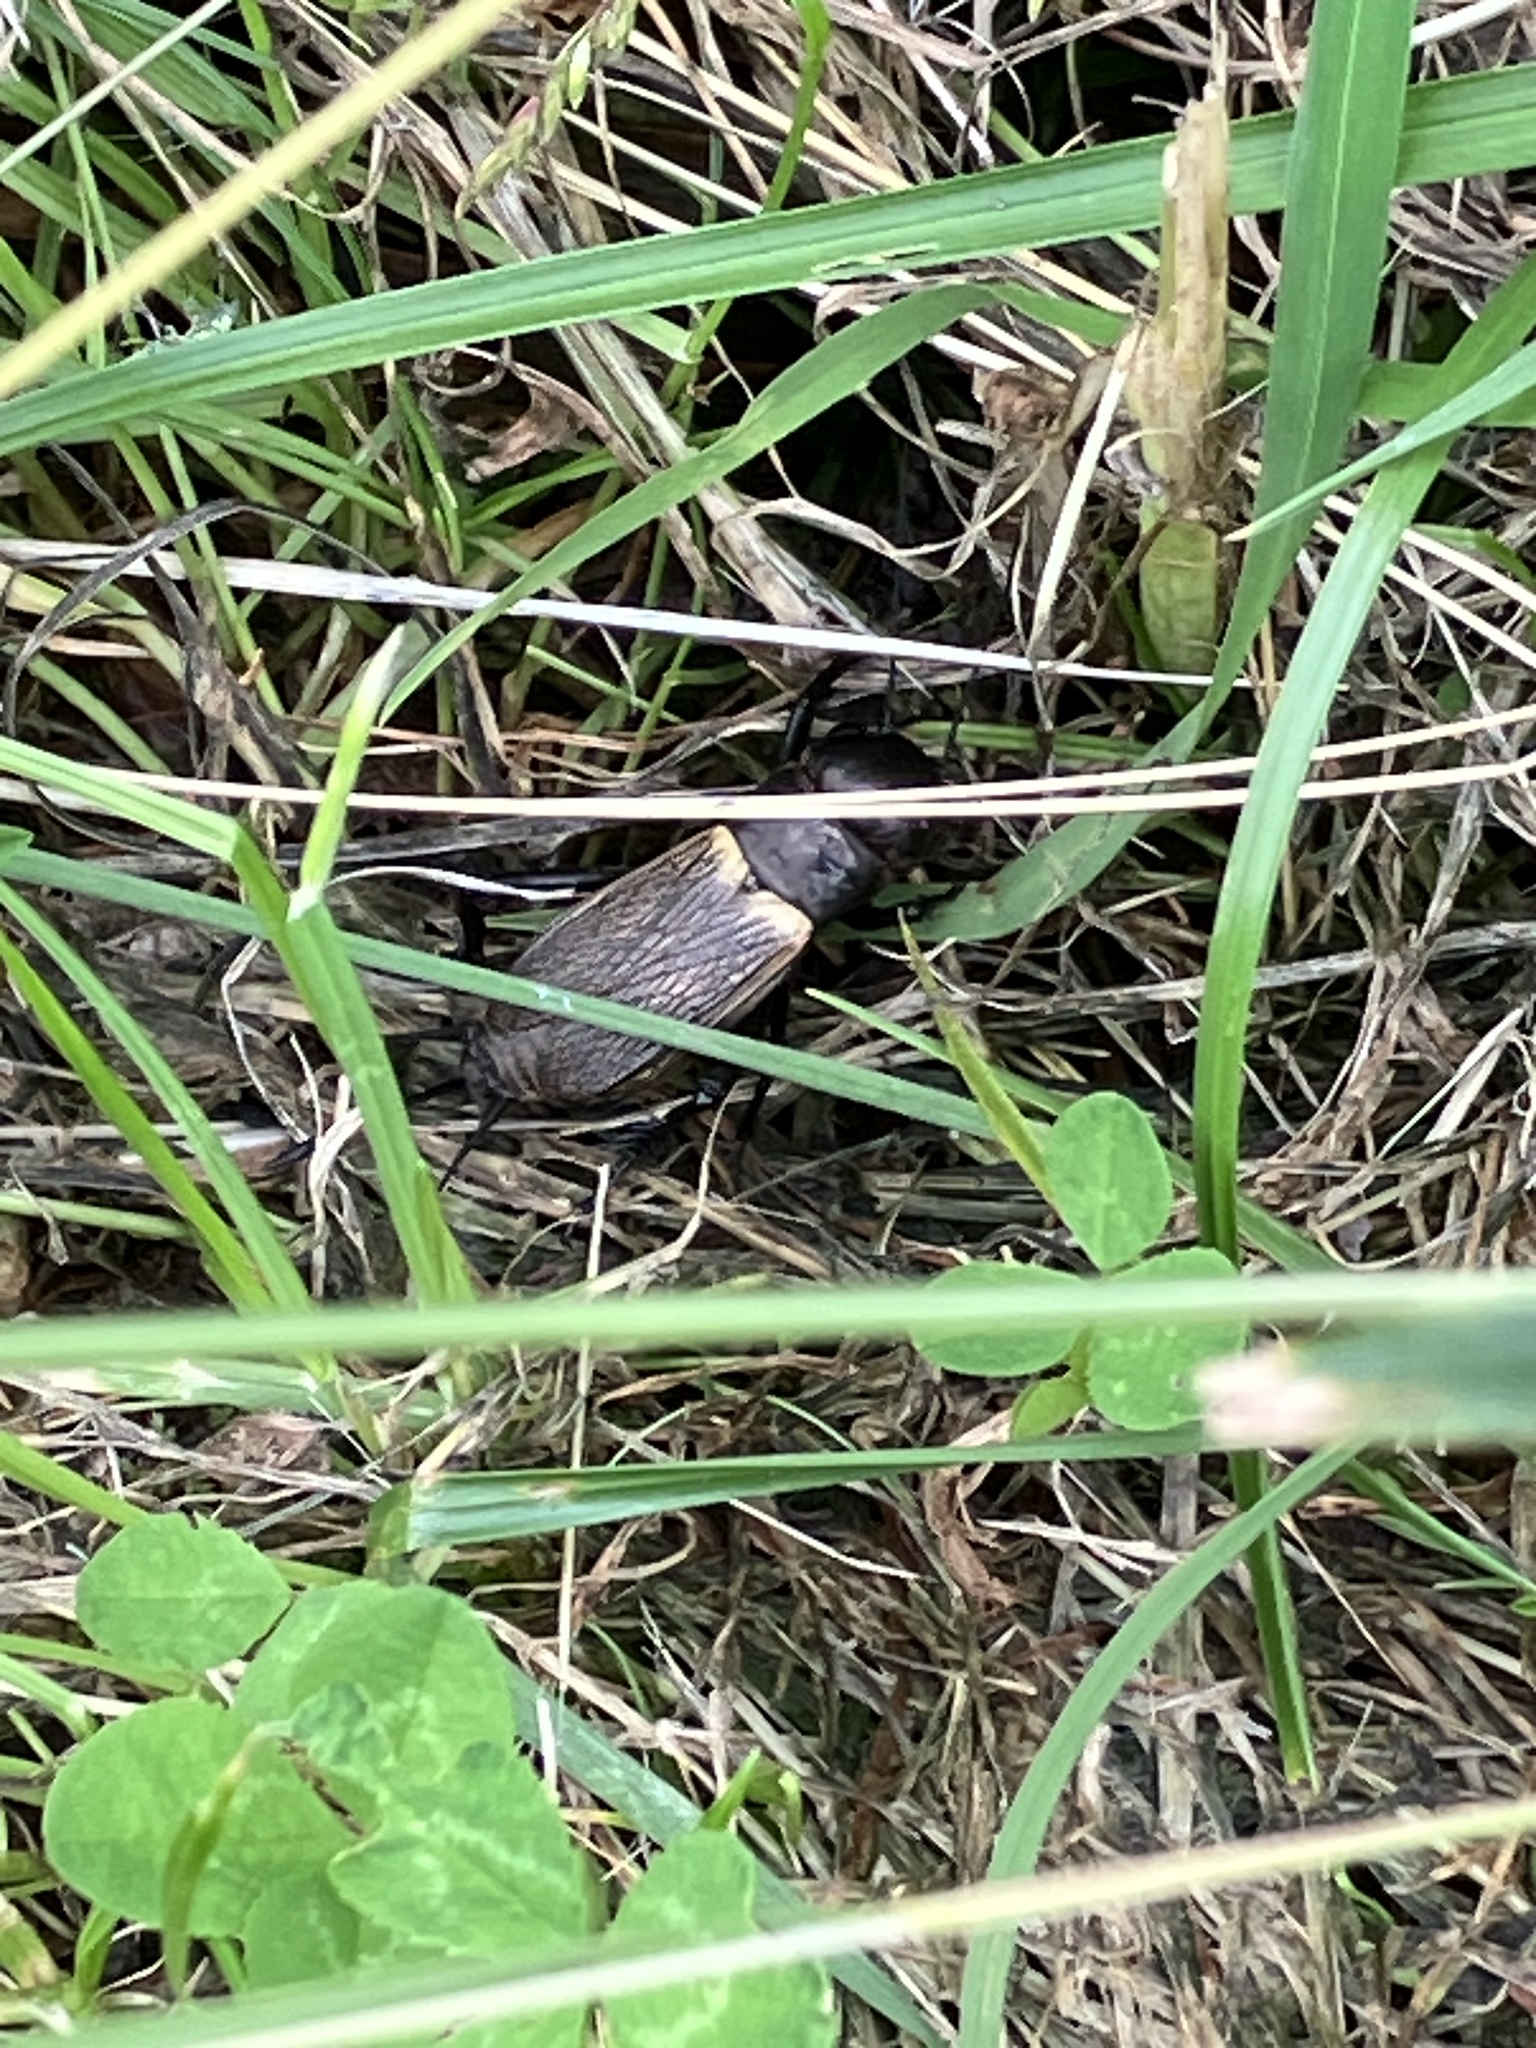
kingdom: Animalia
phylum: Arthropoda
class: Insecta
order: Orthoptera
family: Gryllidae
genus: Gryllus
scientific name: Gryllus campestris
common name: Field cricket
